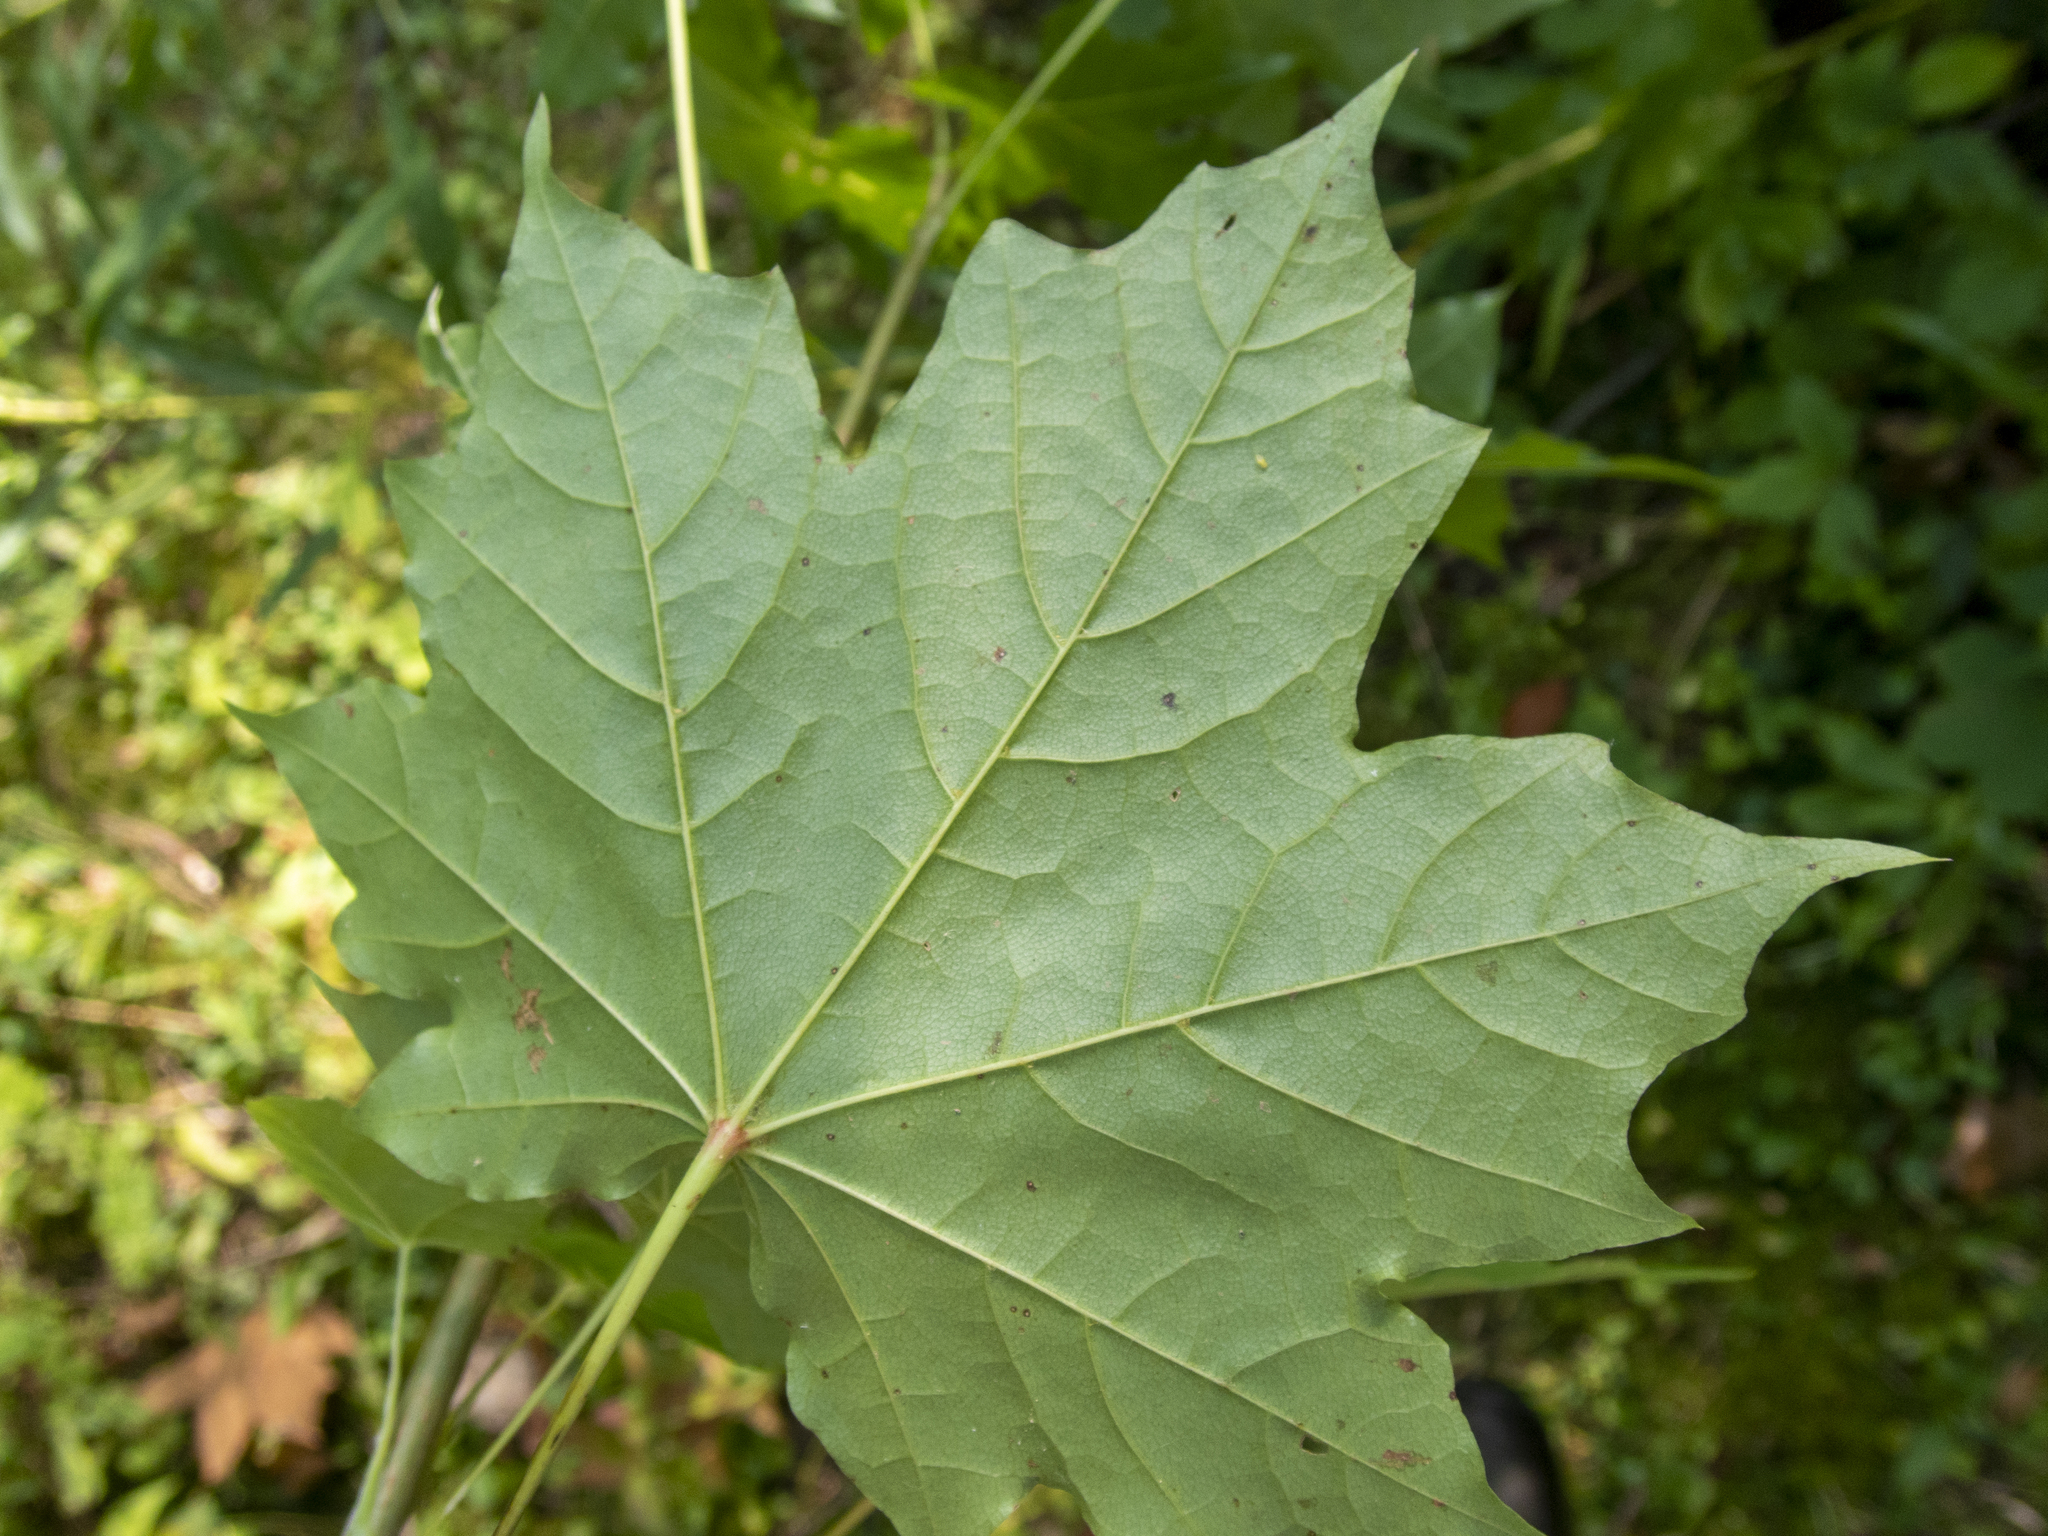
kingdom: Plantae
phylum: Tracheophyta
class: Magnoliopsida
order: Sapindales
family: Sapindaceae
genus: Acer
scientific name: Acer platanoides
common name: Norway maple
